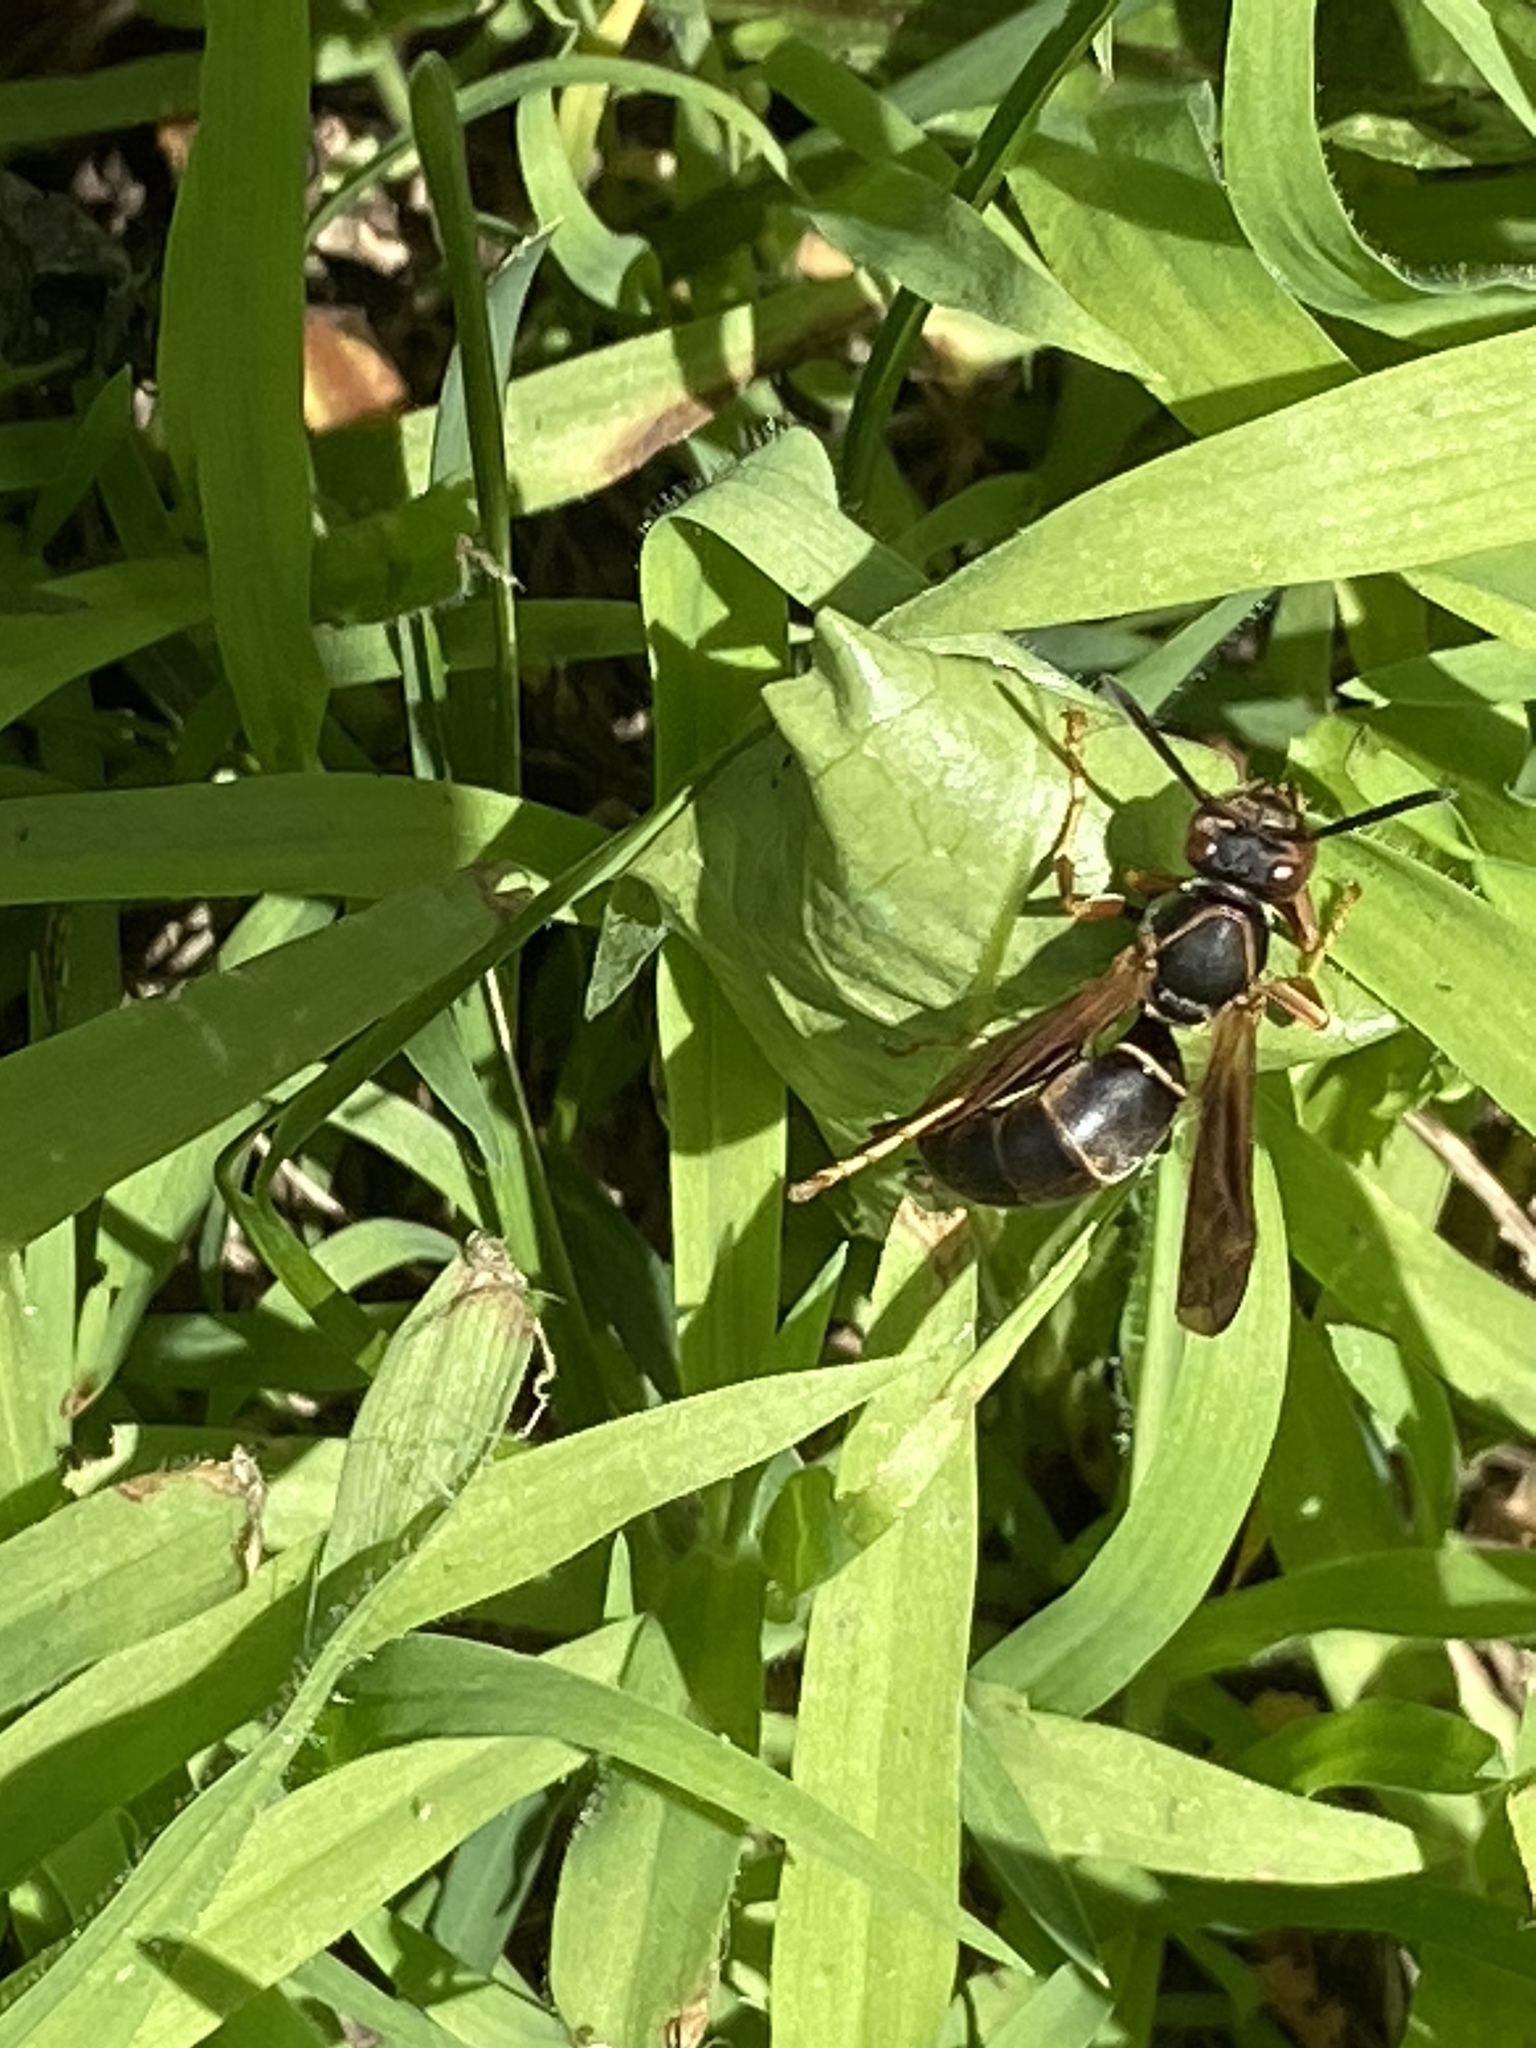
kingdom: Animalia
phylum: Arthropoda
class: Insecta
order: Hymenoptera
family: Eumenidae
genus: Polistes
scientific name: Polistes fuscatus
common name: Dark paper wasp
